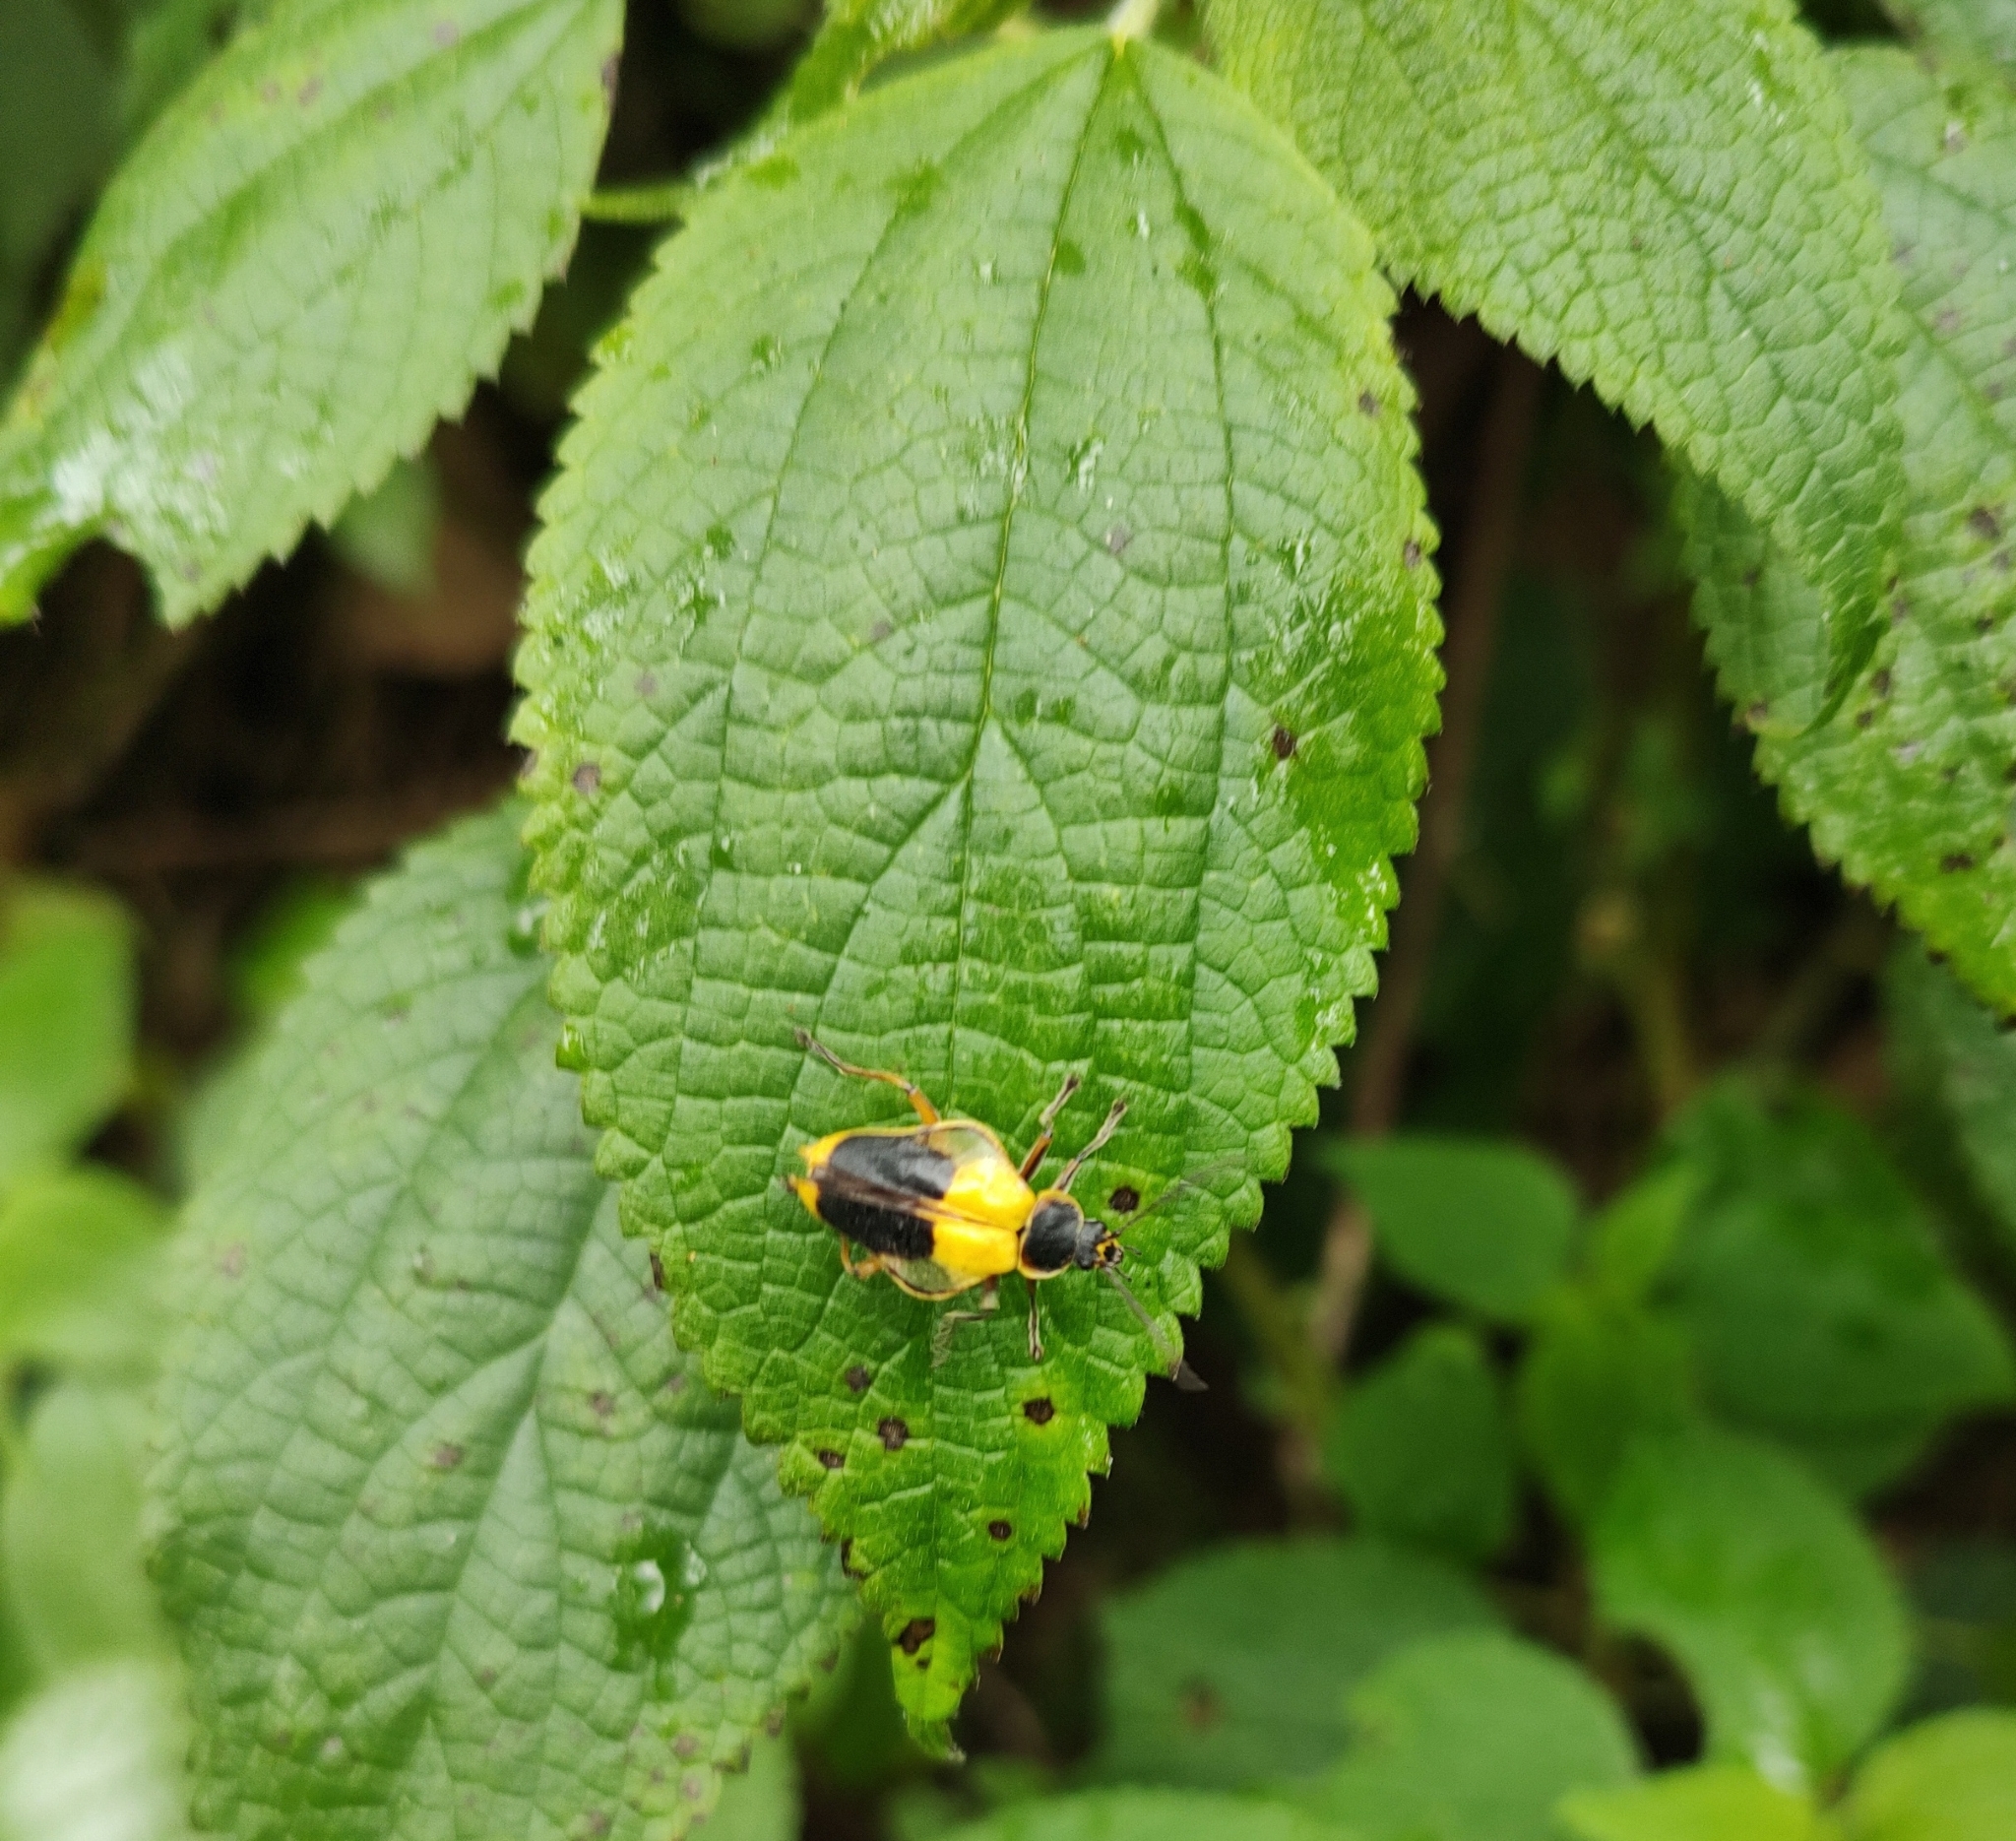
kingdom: Animalia
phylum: Arthropoda
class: Insecta
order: Coleoptera
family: Cantharidae
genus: Chauliognathus
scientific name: Chauliognathus
